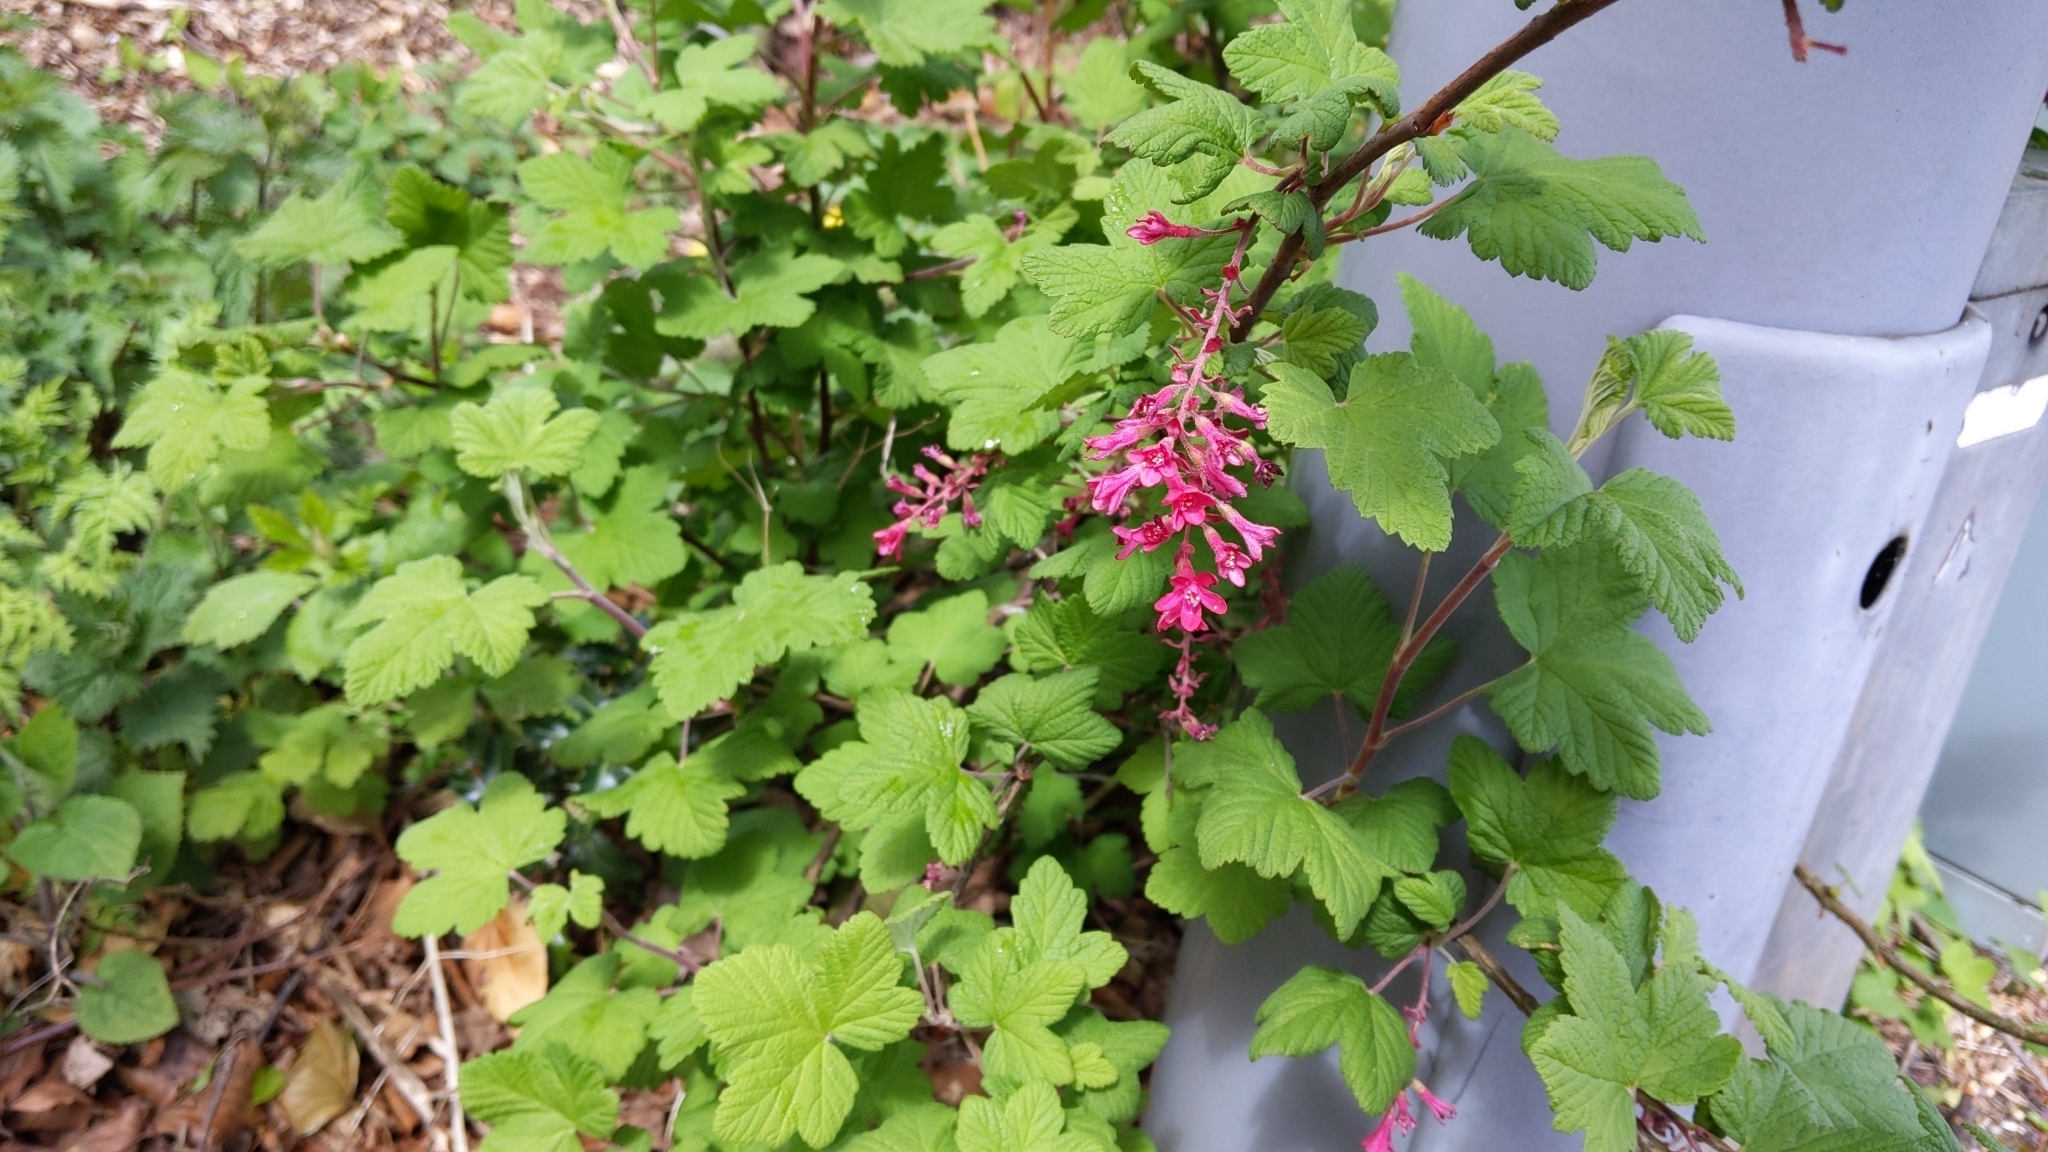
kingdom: Plantae
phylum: Tracheophyta
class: Magnoliopsida
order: Saxifragales
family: Grossulariaceae
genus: Ribes
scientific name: Ribes sanguineum
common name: Flowering currant
